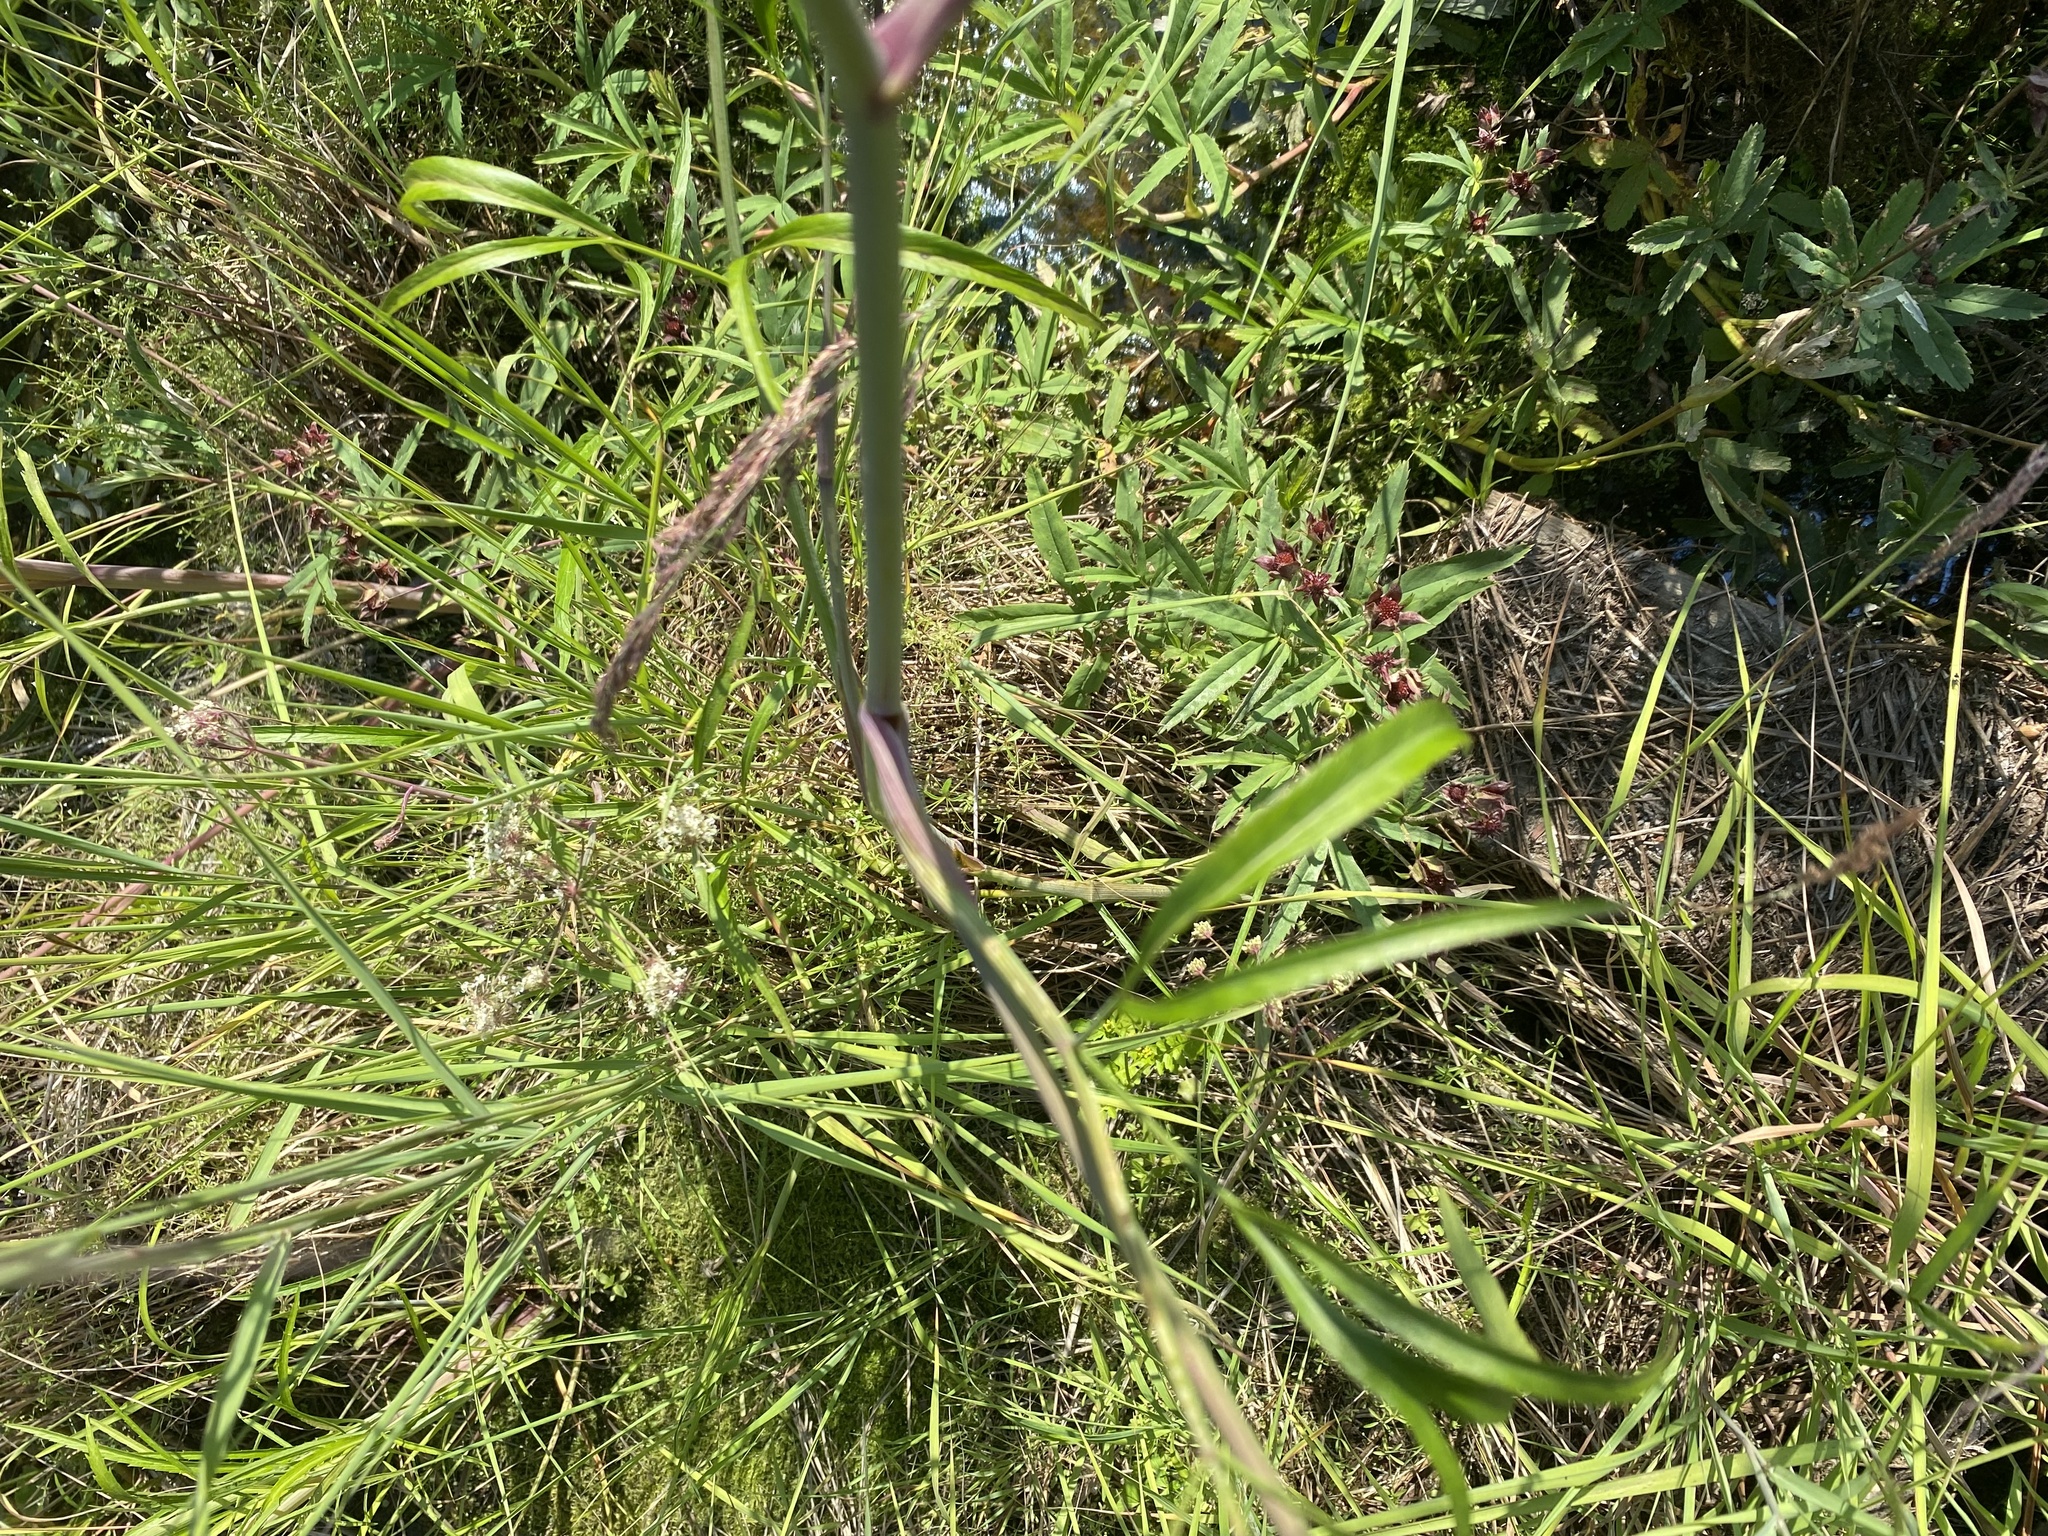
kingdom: Plantae
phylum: Tracheophyta
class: Magnoliopsida
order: Apiales
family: Apiaceae
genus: Cicuta
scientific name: Cicuta virosa
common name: Cowbane
